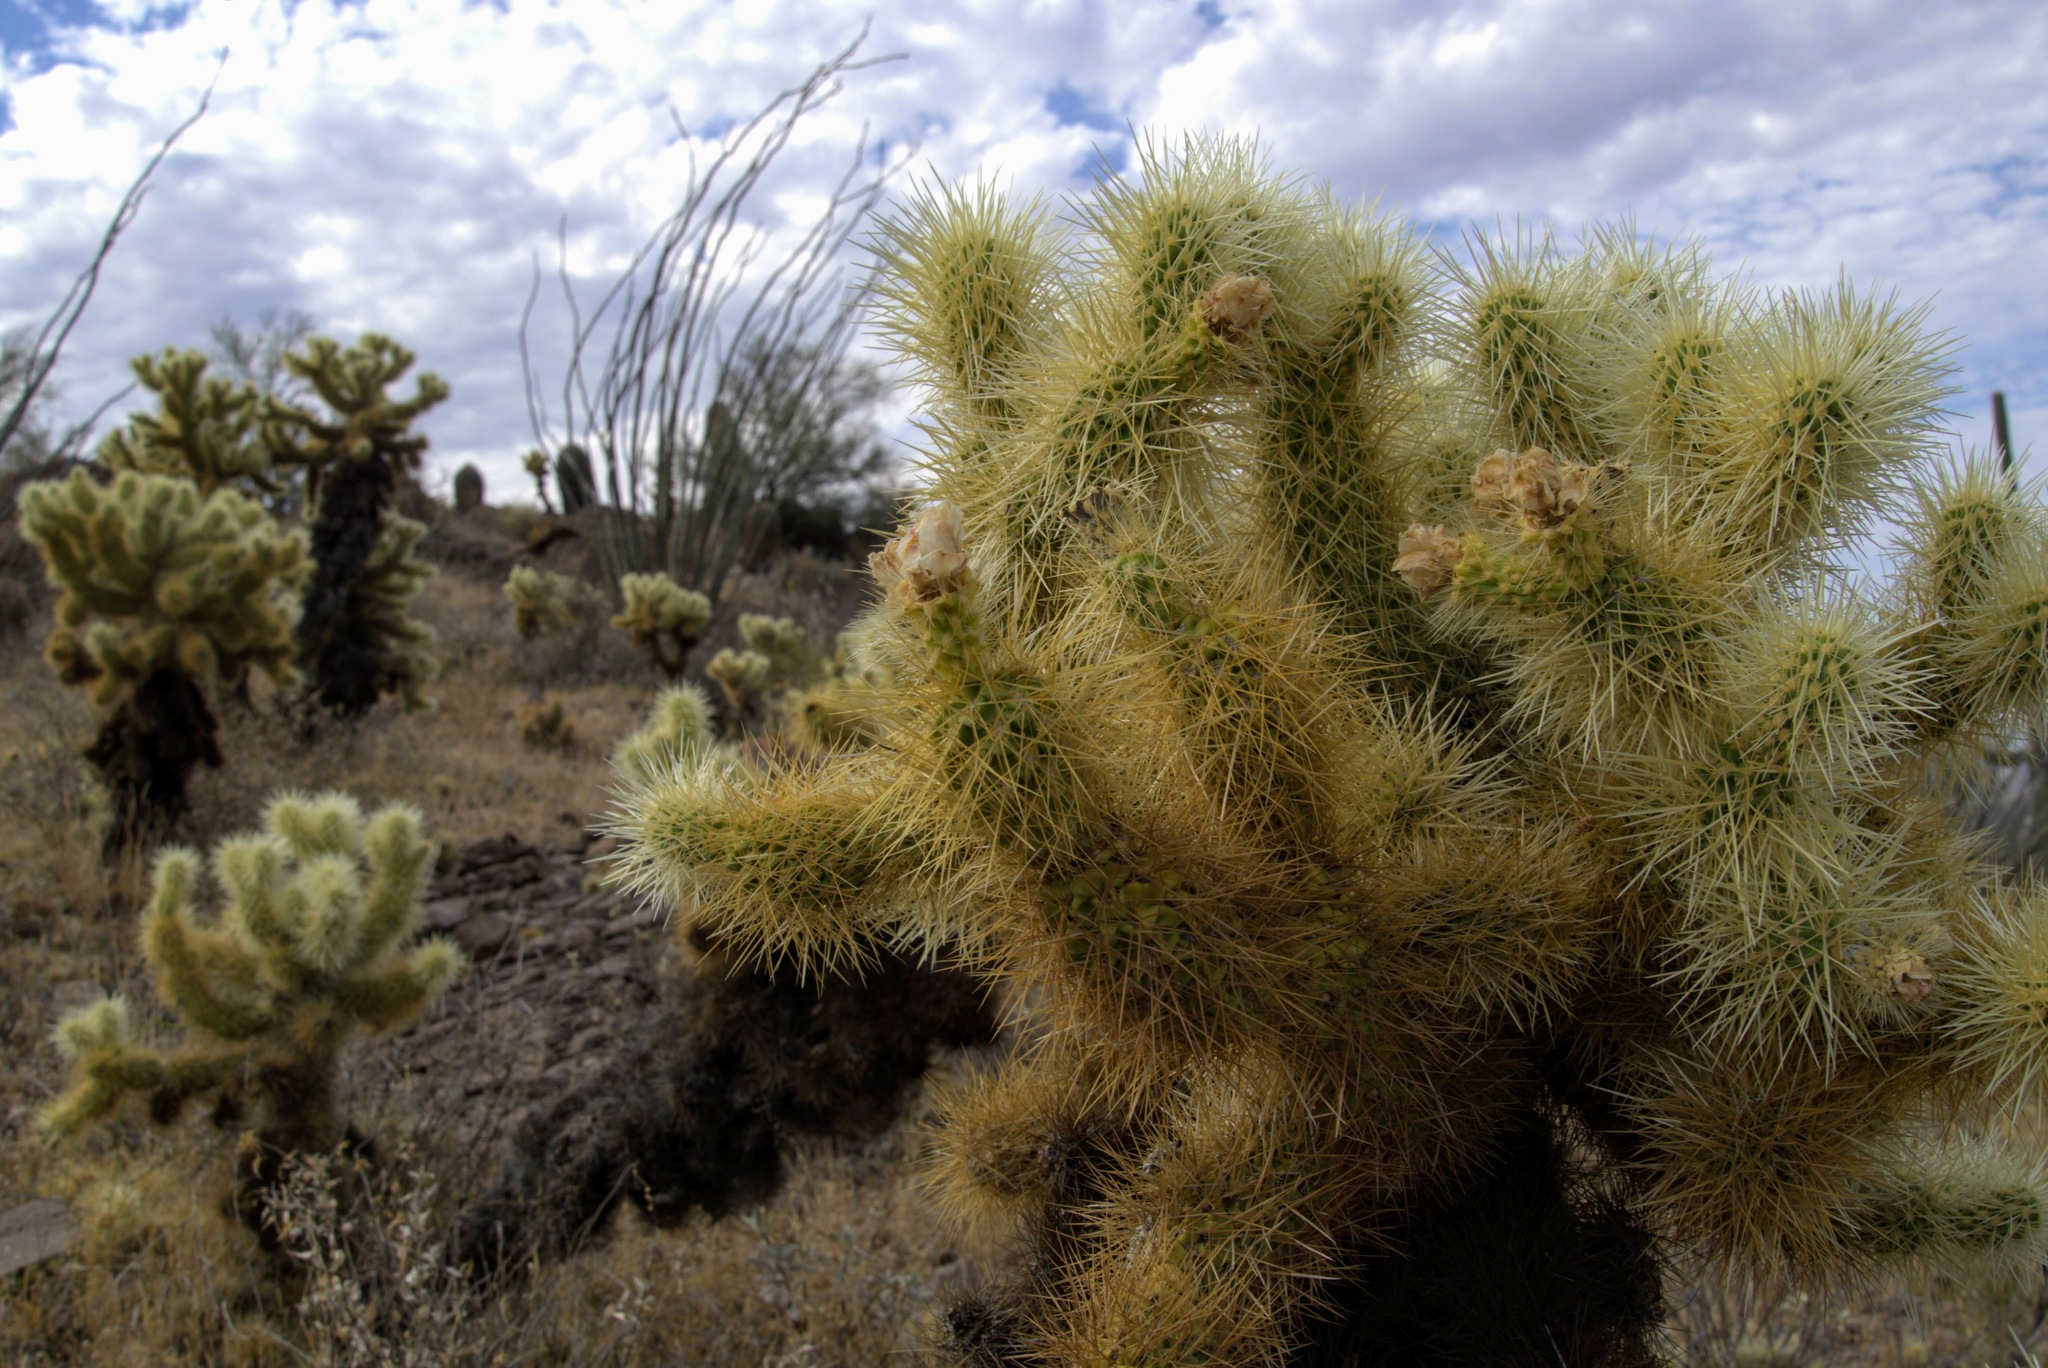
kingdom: Plantae
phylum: Tracheophyta
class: Magnoliopsida
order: Caryophyllales
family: Cactaceae
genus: Cylindropuntia
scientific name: Cylindropuntia fosbergii
